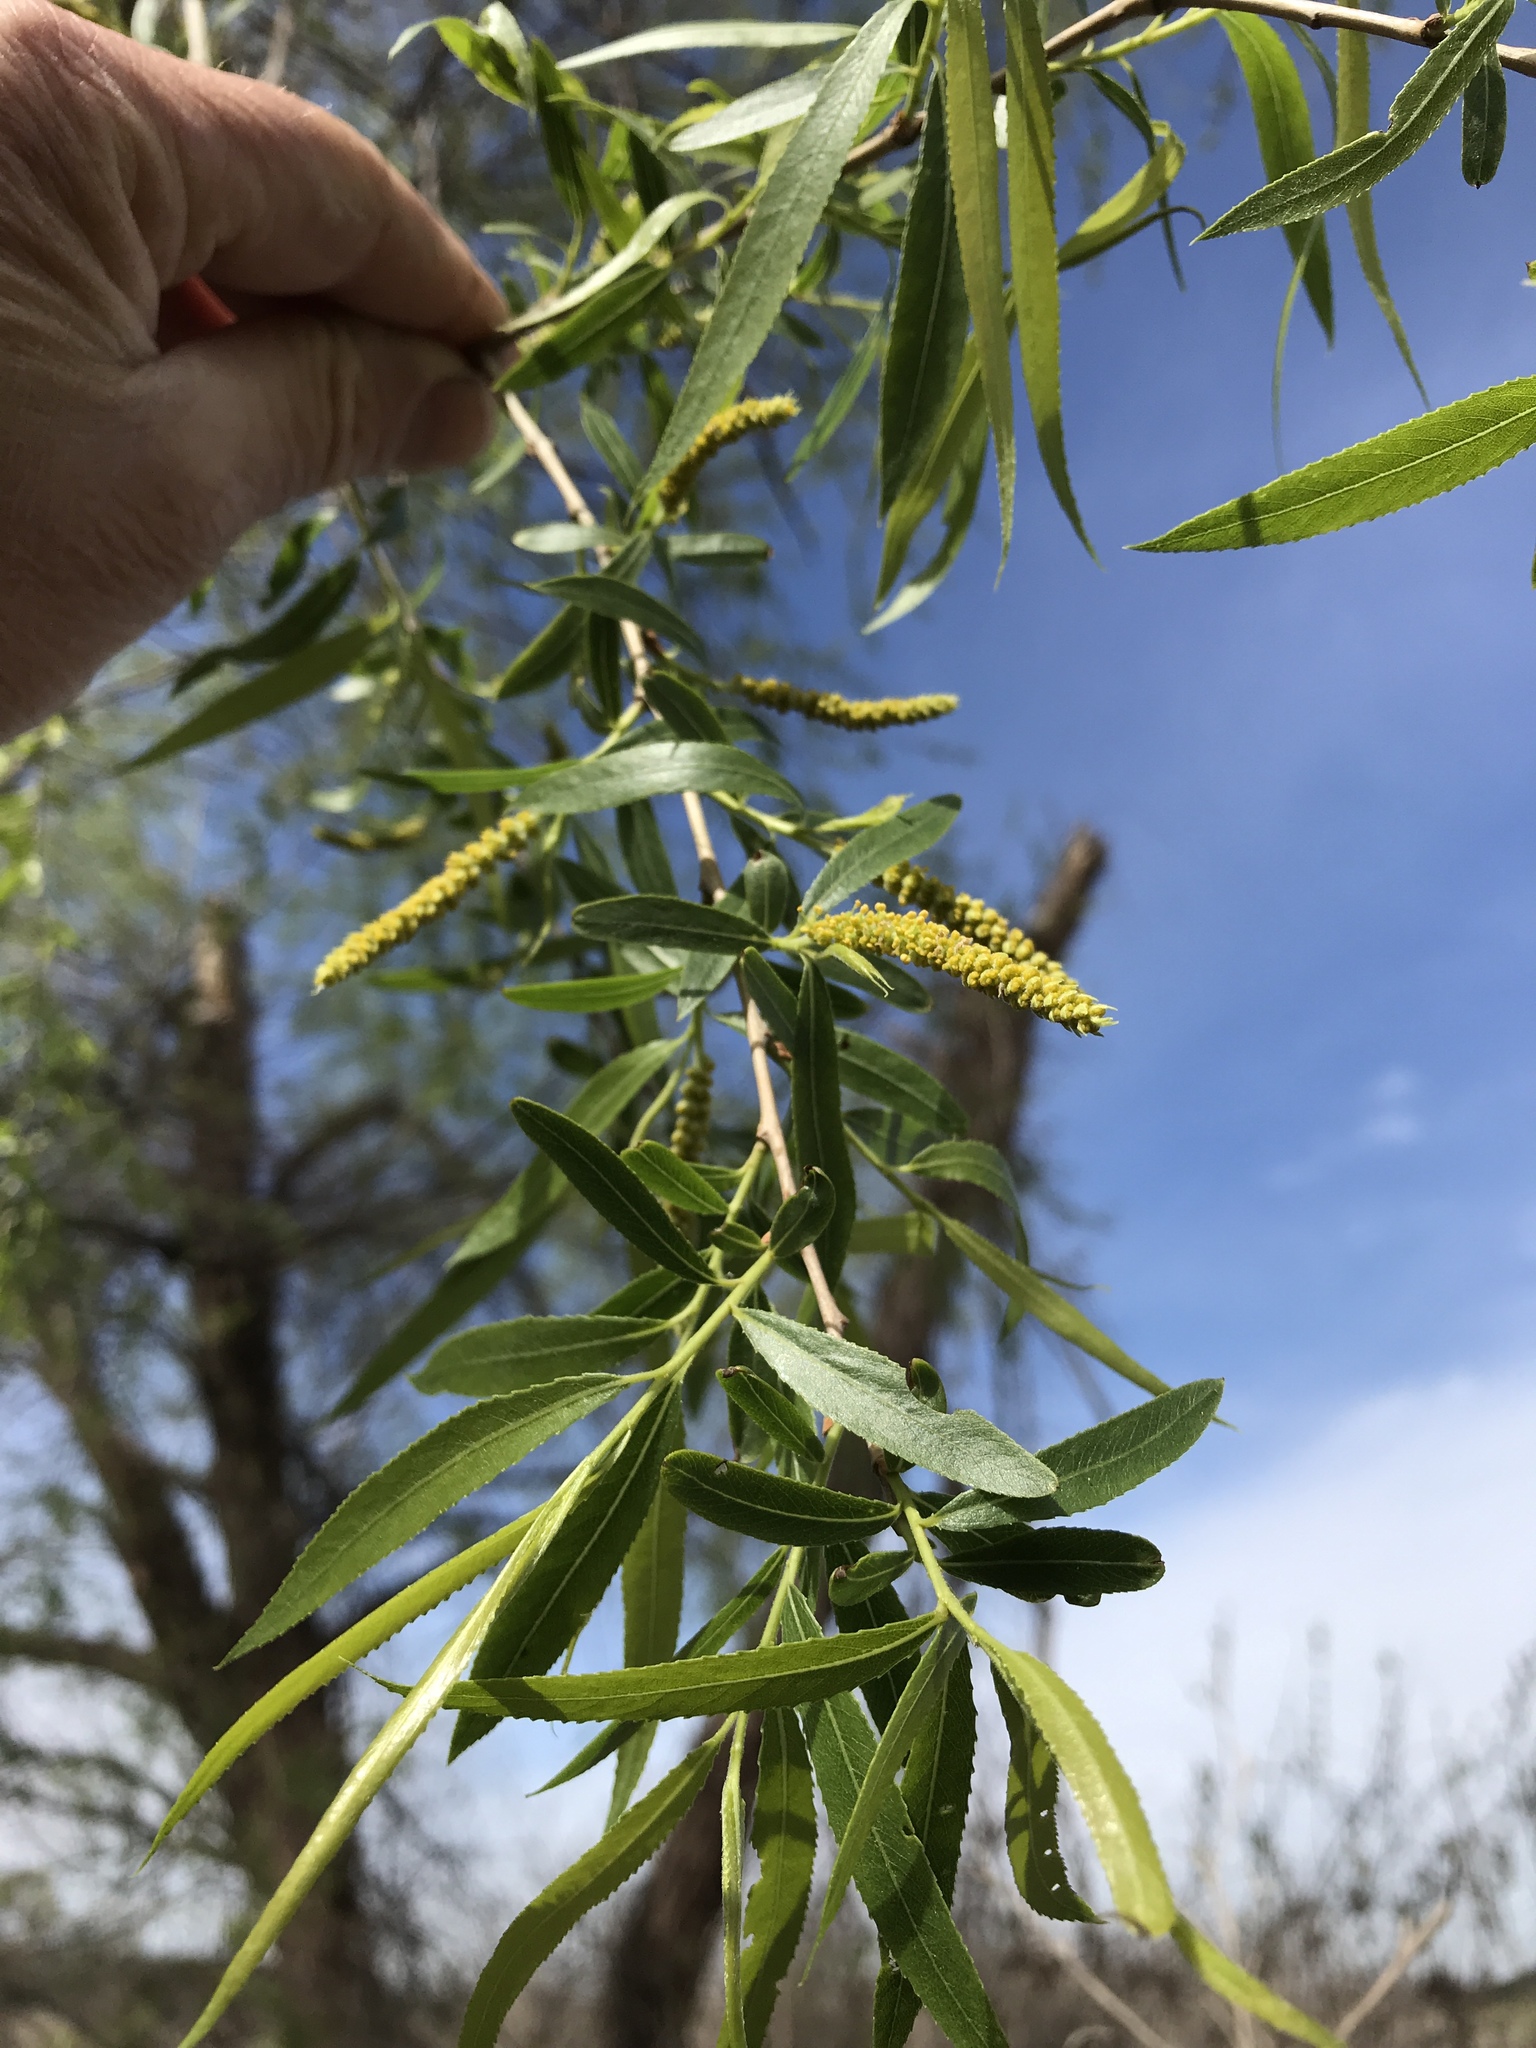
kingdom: Plantae
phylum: Tracheophyta
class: Magnoliopsida
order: Malpighiales
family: Salicaceae
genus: Salix
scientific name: Salix nigra
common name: Black willow
